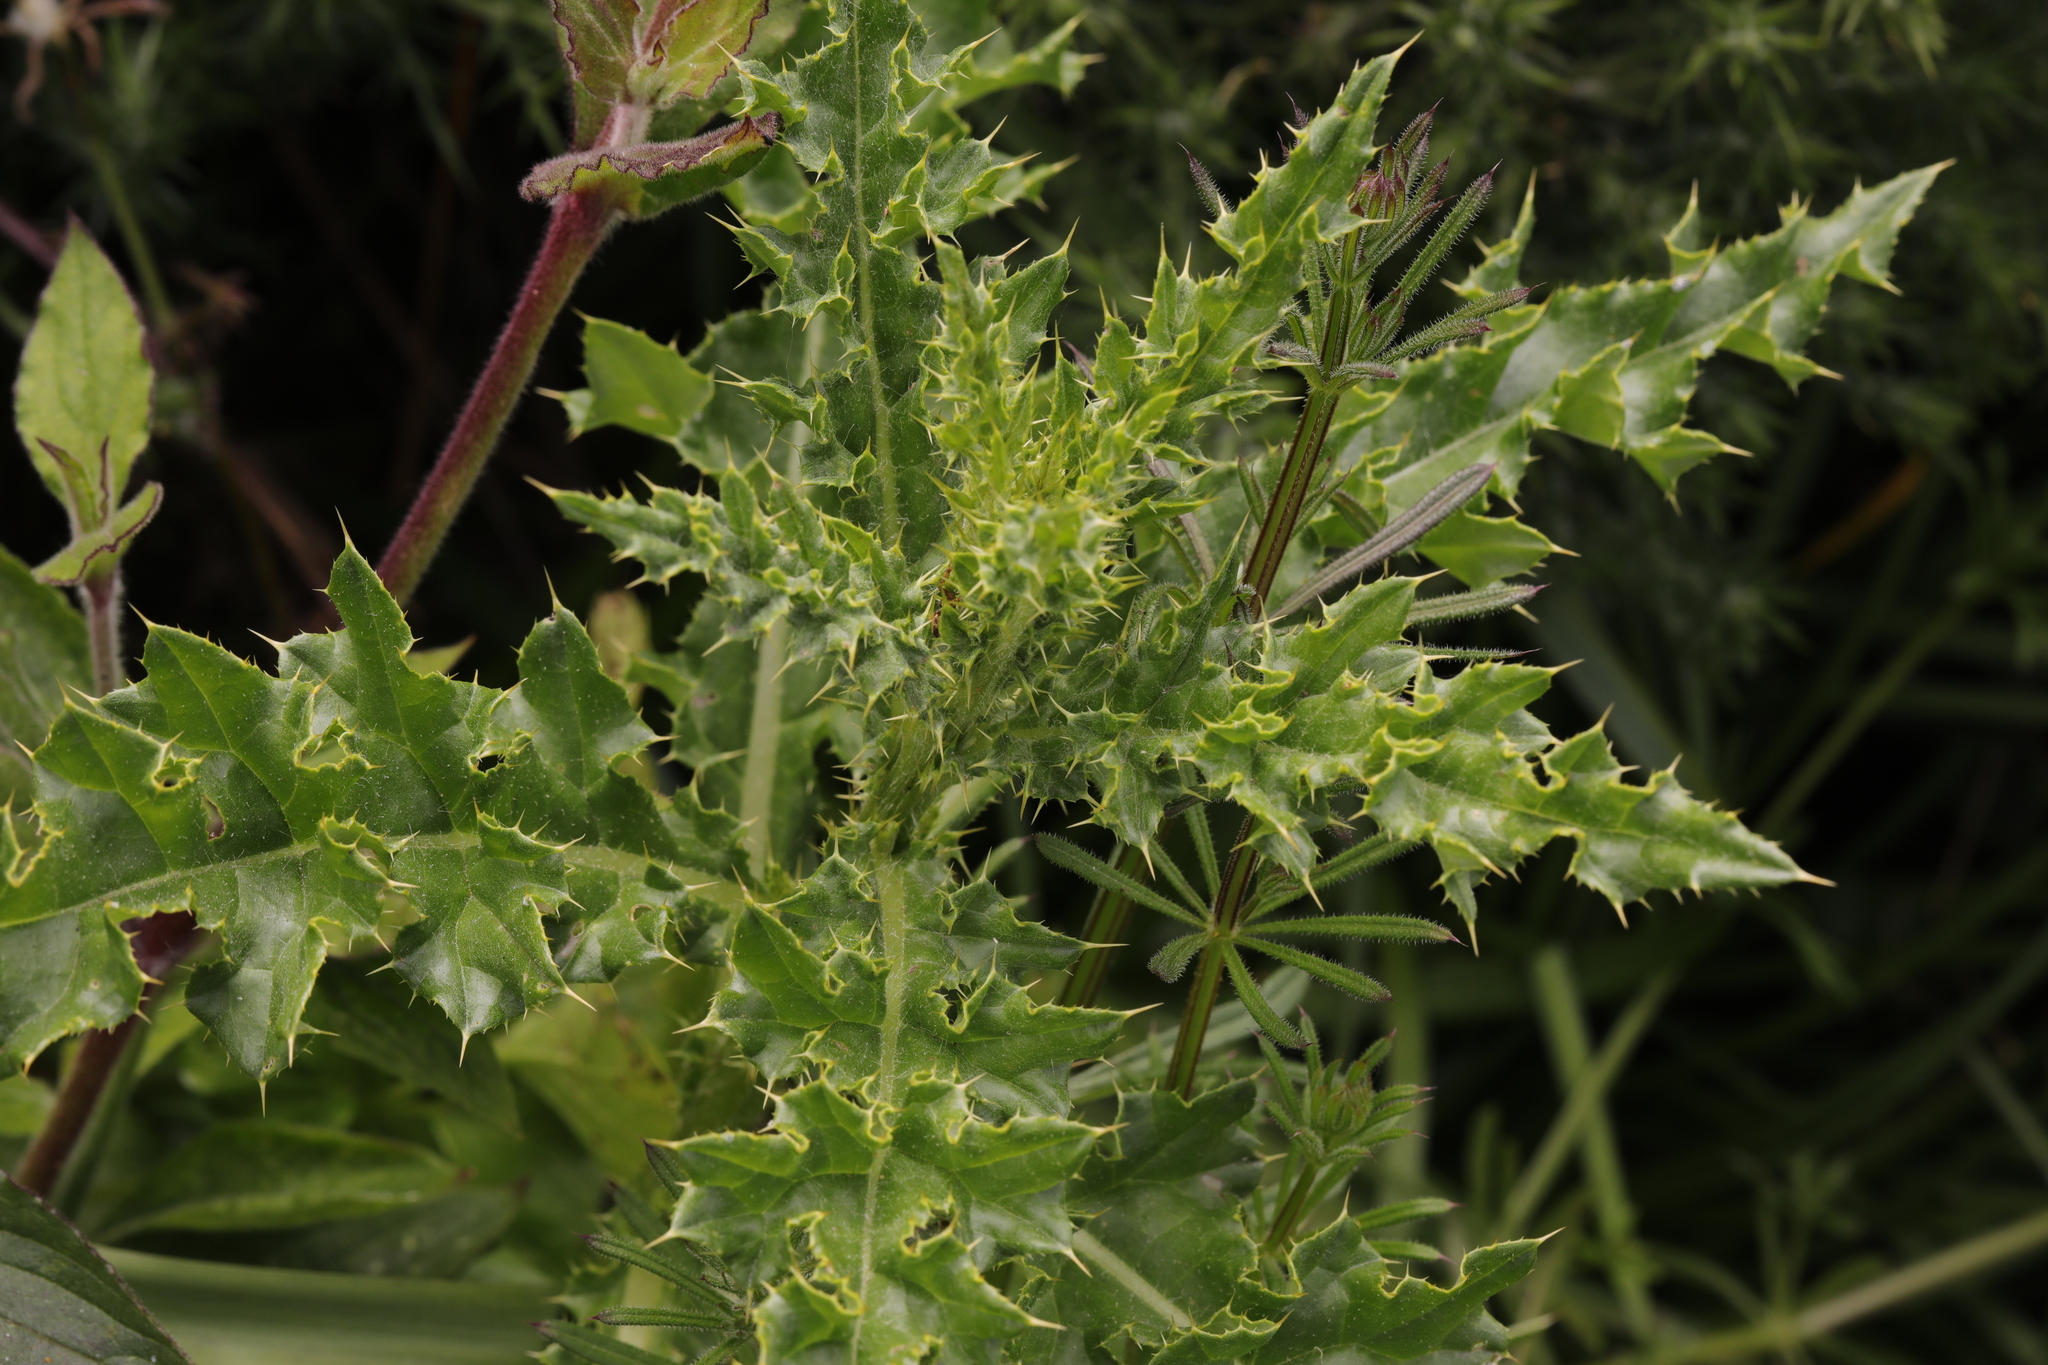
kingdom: Plantae
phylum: Tracheophyta
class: Magnoliopsida
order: Asterales
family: Asteraceae
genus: Cirsium
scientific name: Cirsium arvense
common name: Creeping thistle
